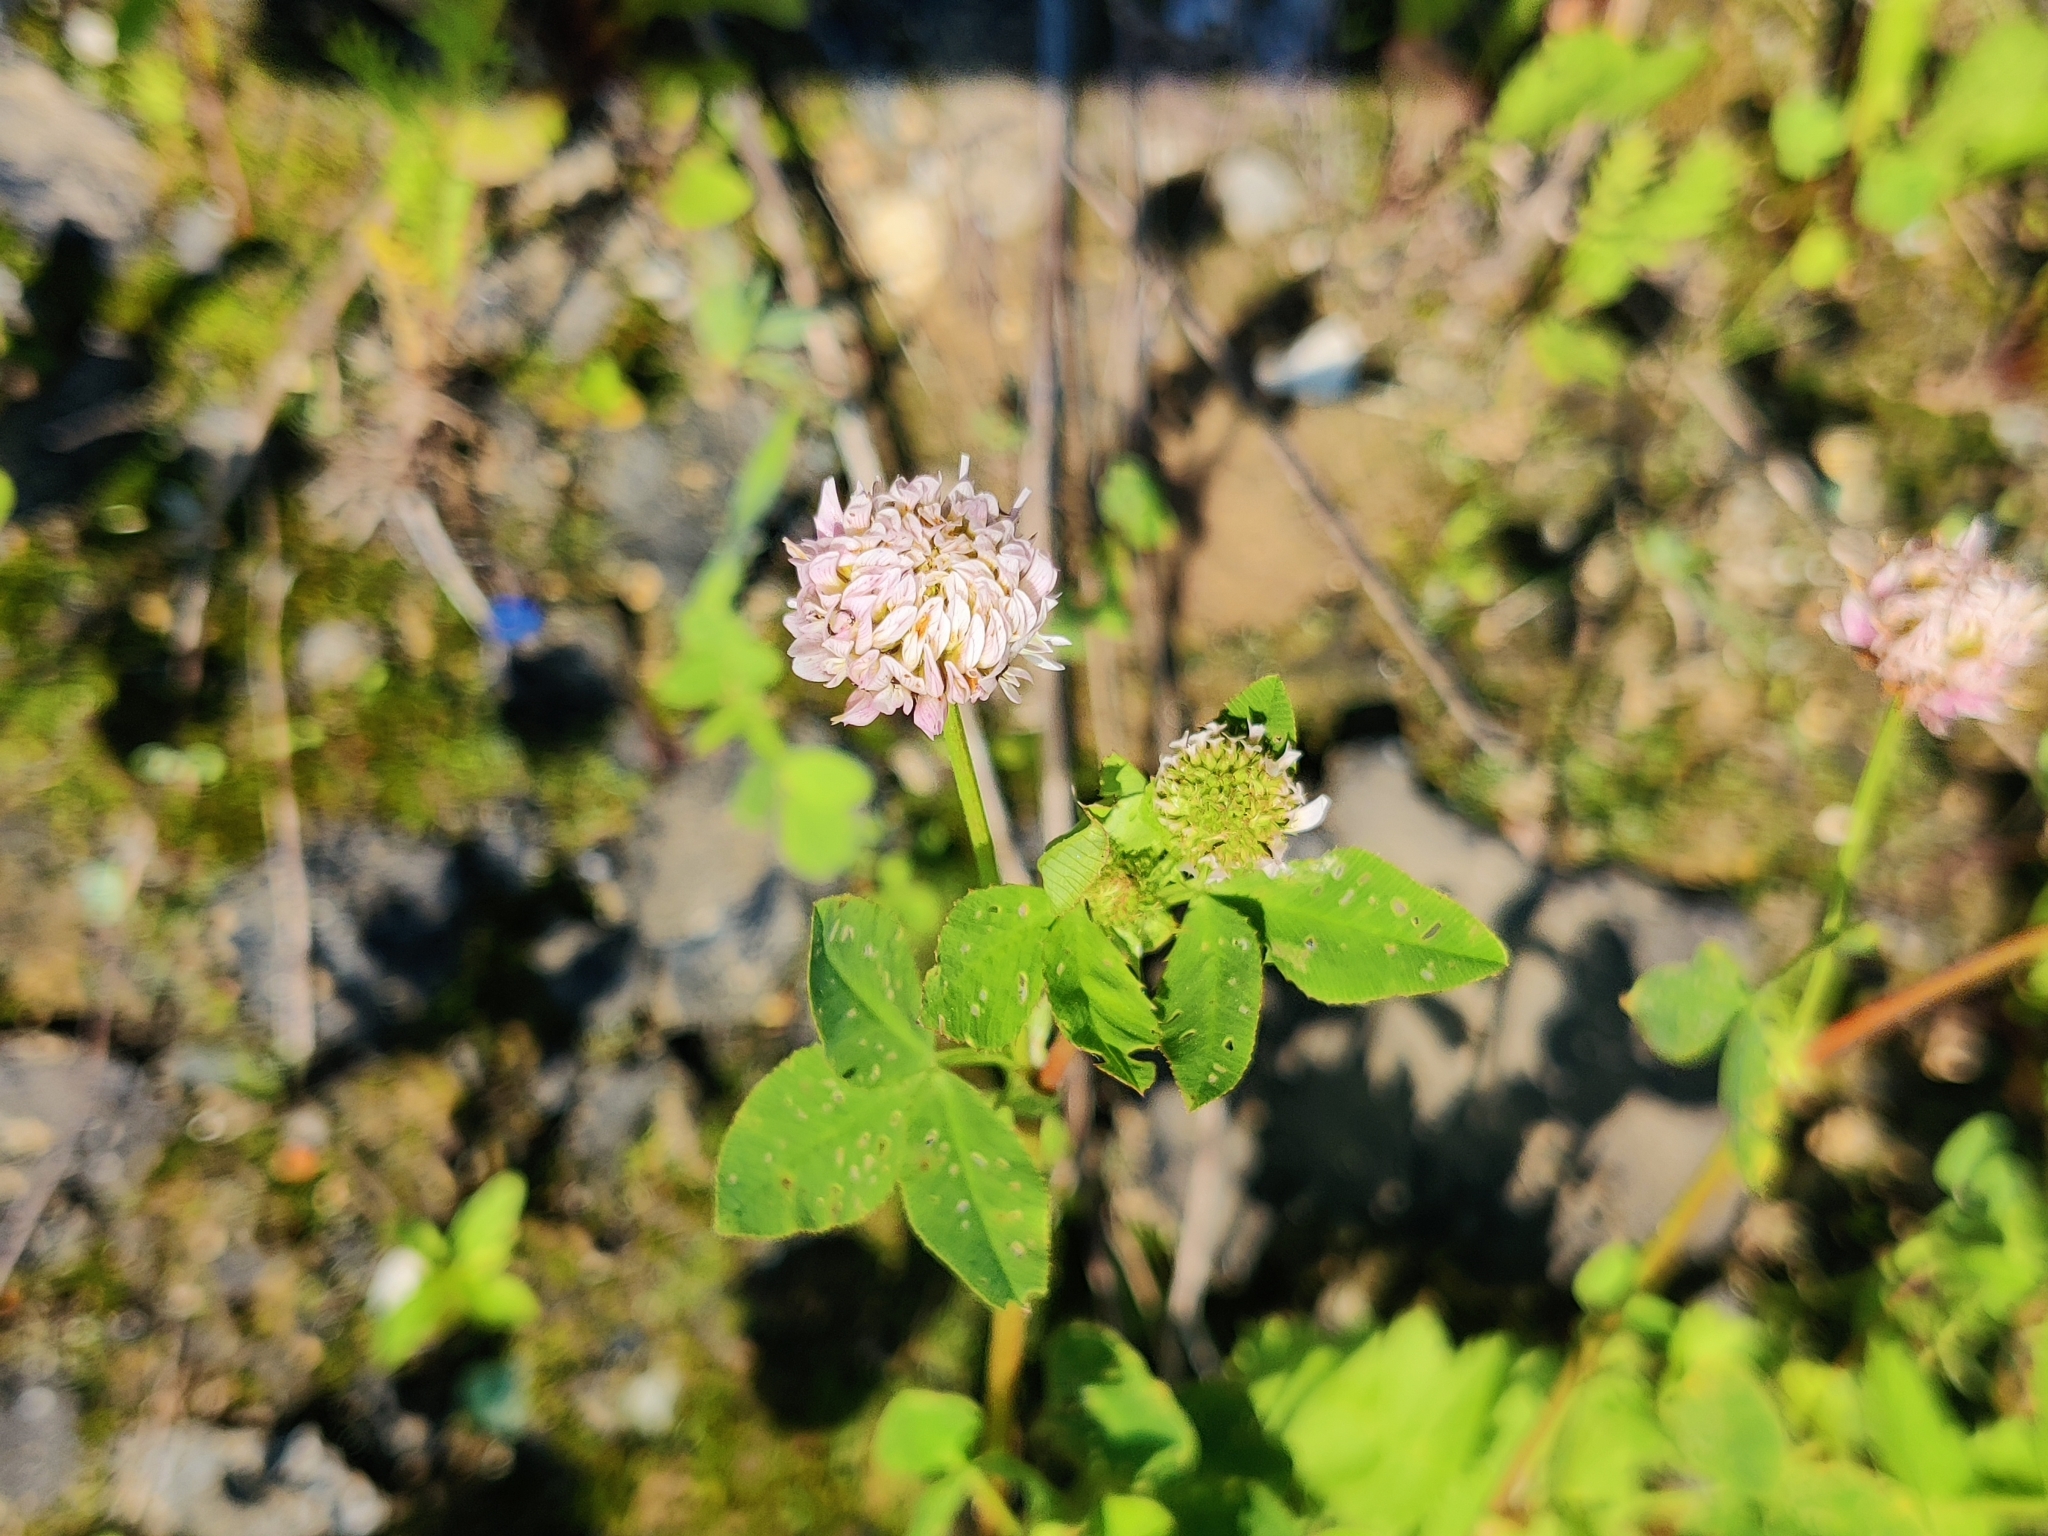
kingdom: Plantae
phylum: Tracheophyta
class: Magnoliopsida
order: Fabales
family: Fabaceae
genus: Trifolium
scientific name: Trifolium hybridum
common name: Alsike clover
